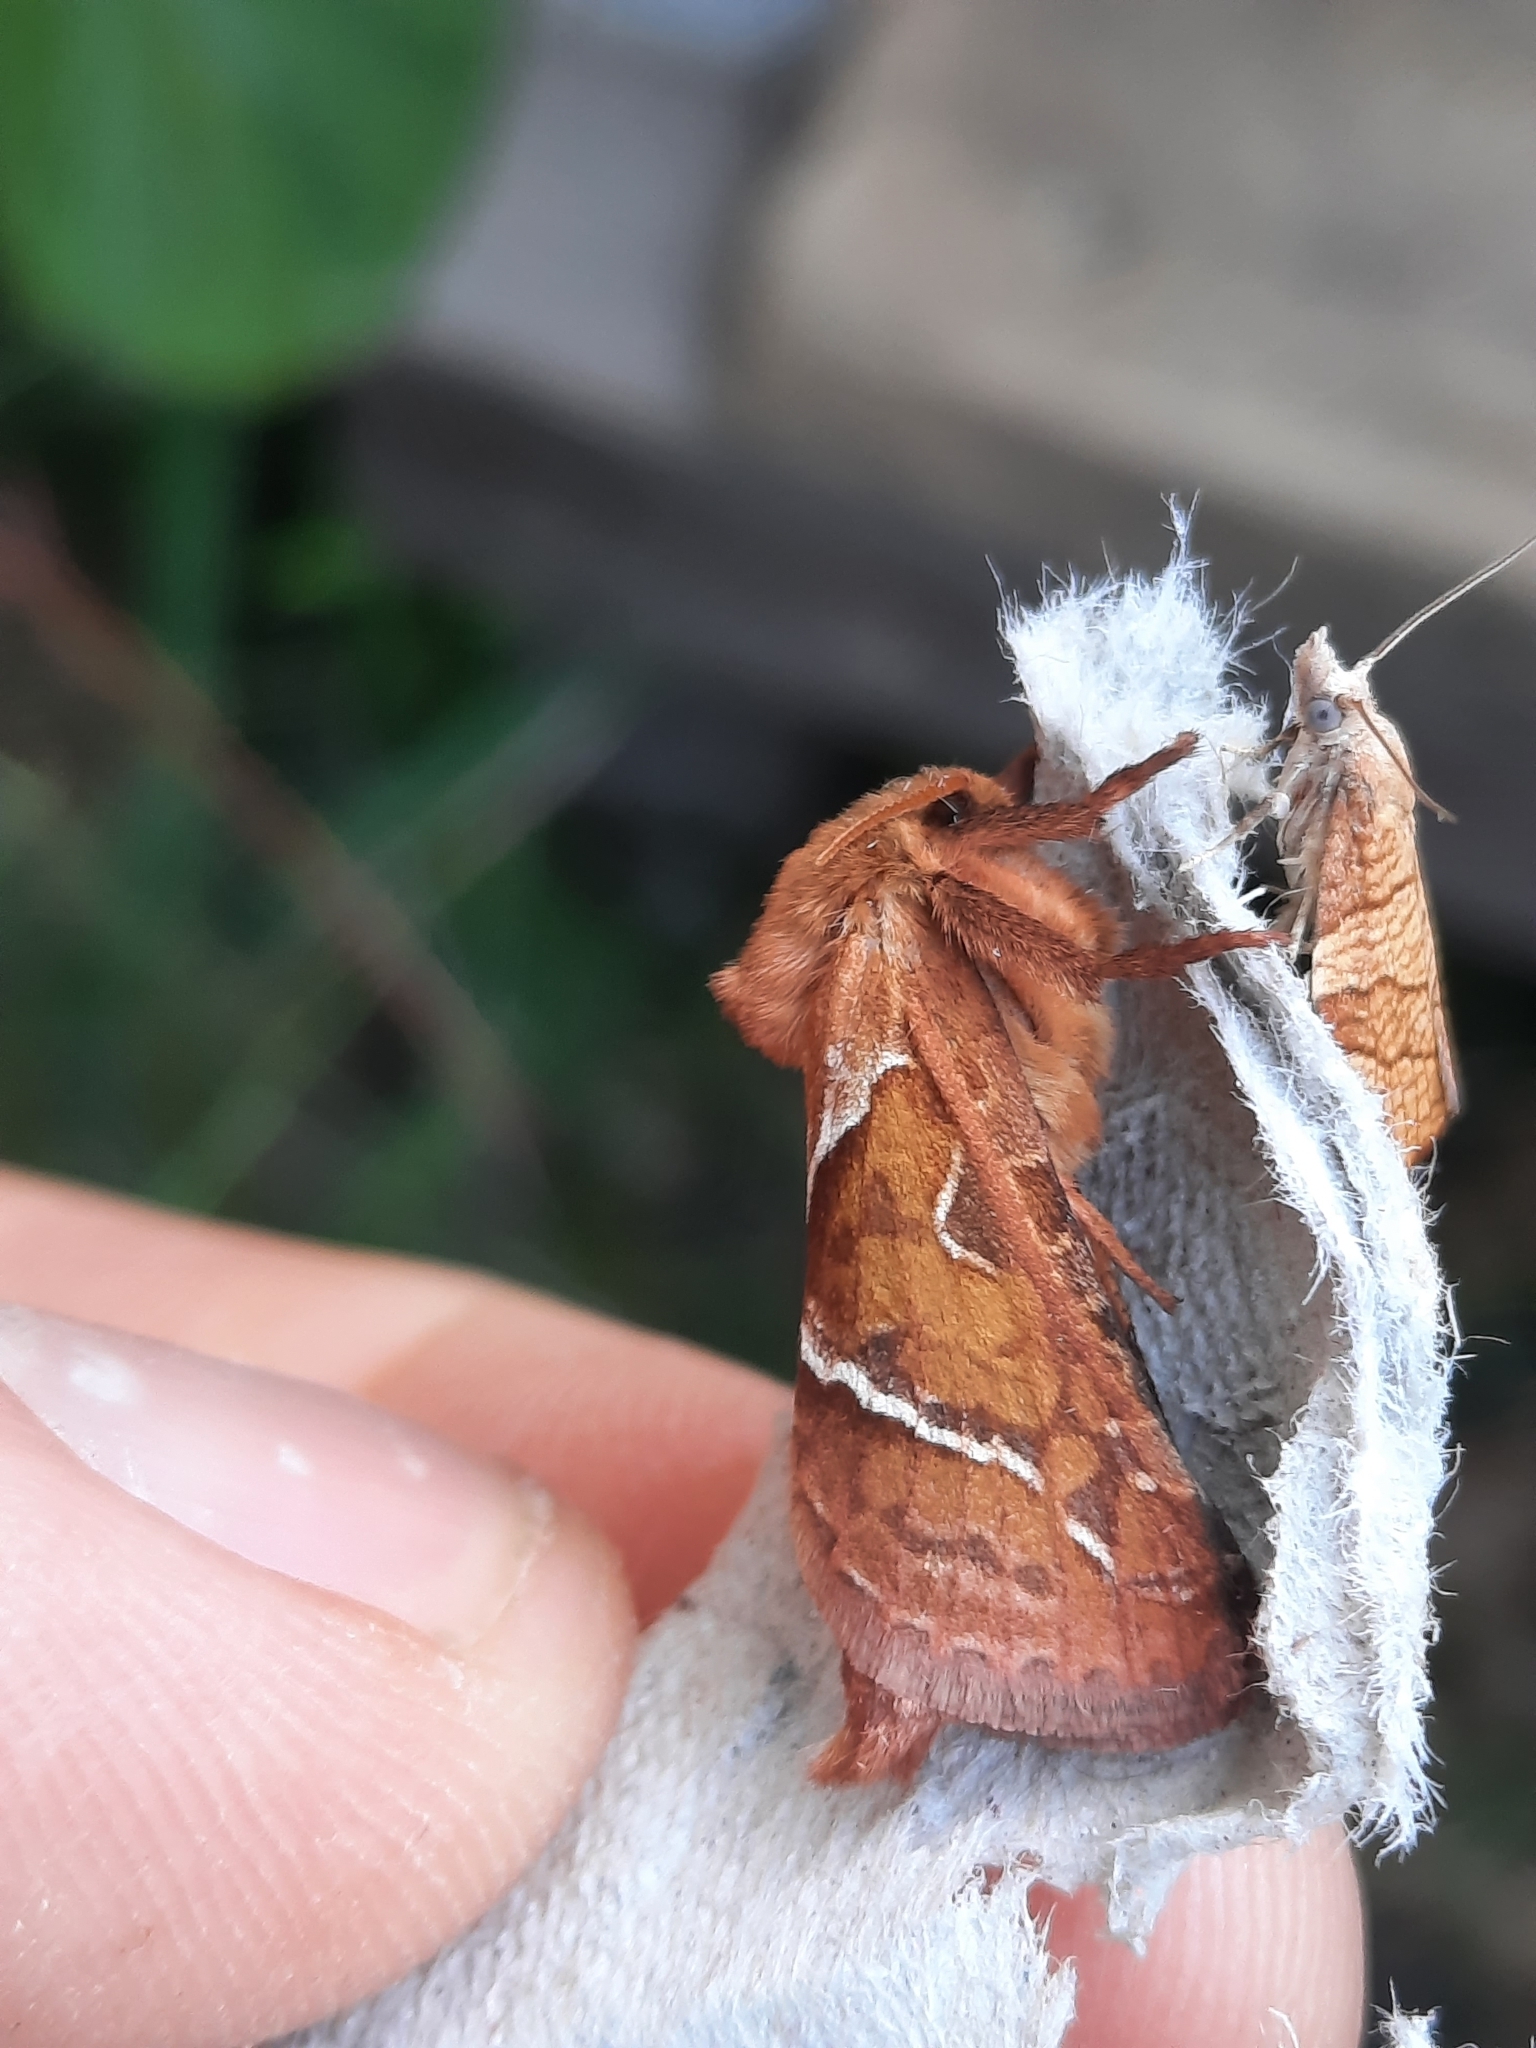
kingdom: Animalia
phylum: Arthropoda
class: Insecta
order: Lepidoptera
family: Hepialidae
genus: Triodia
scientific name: Triodia sylvina
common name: Orange swift
